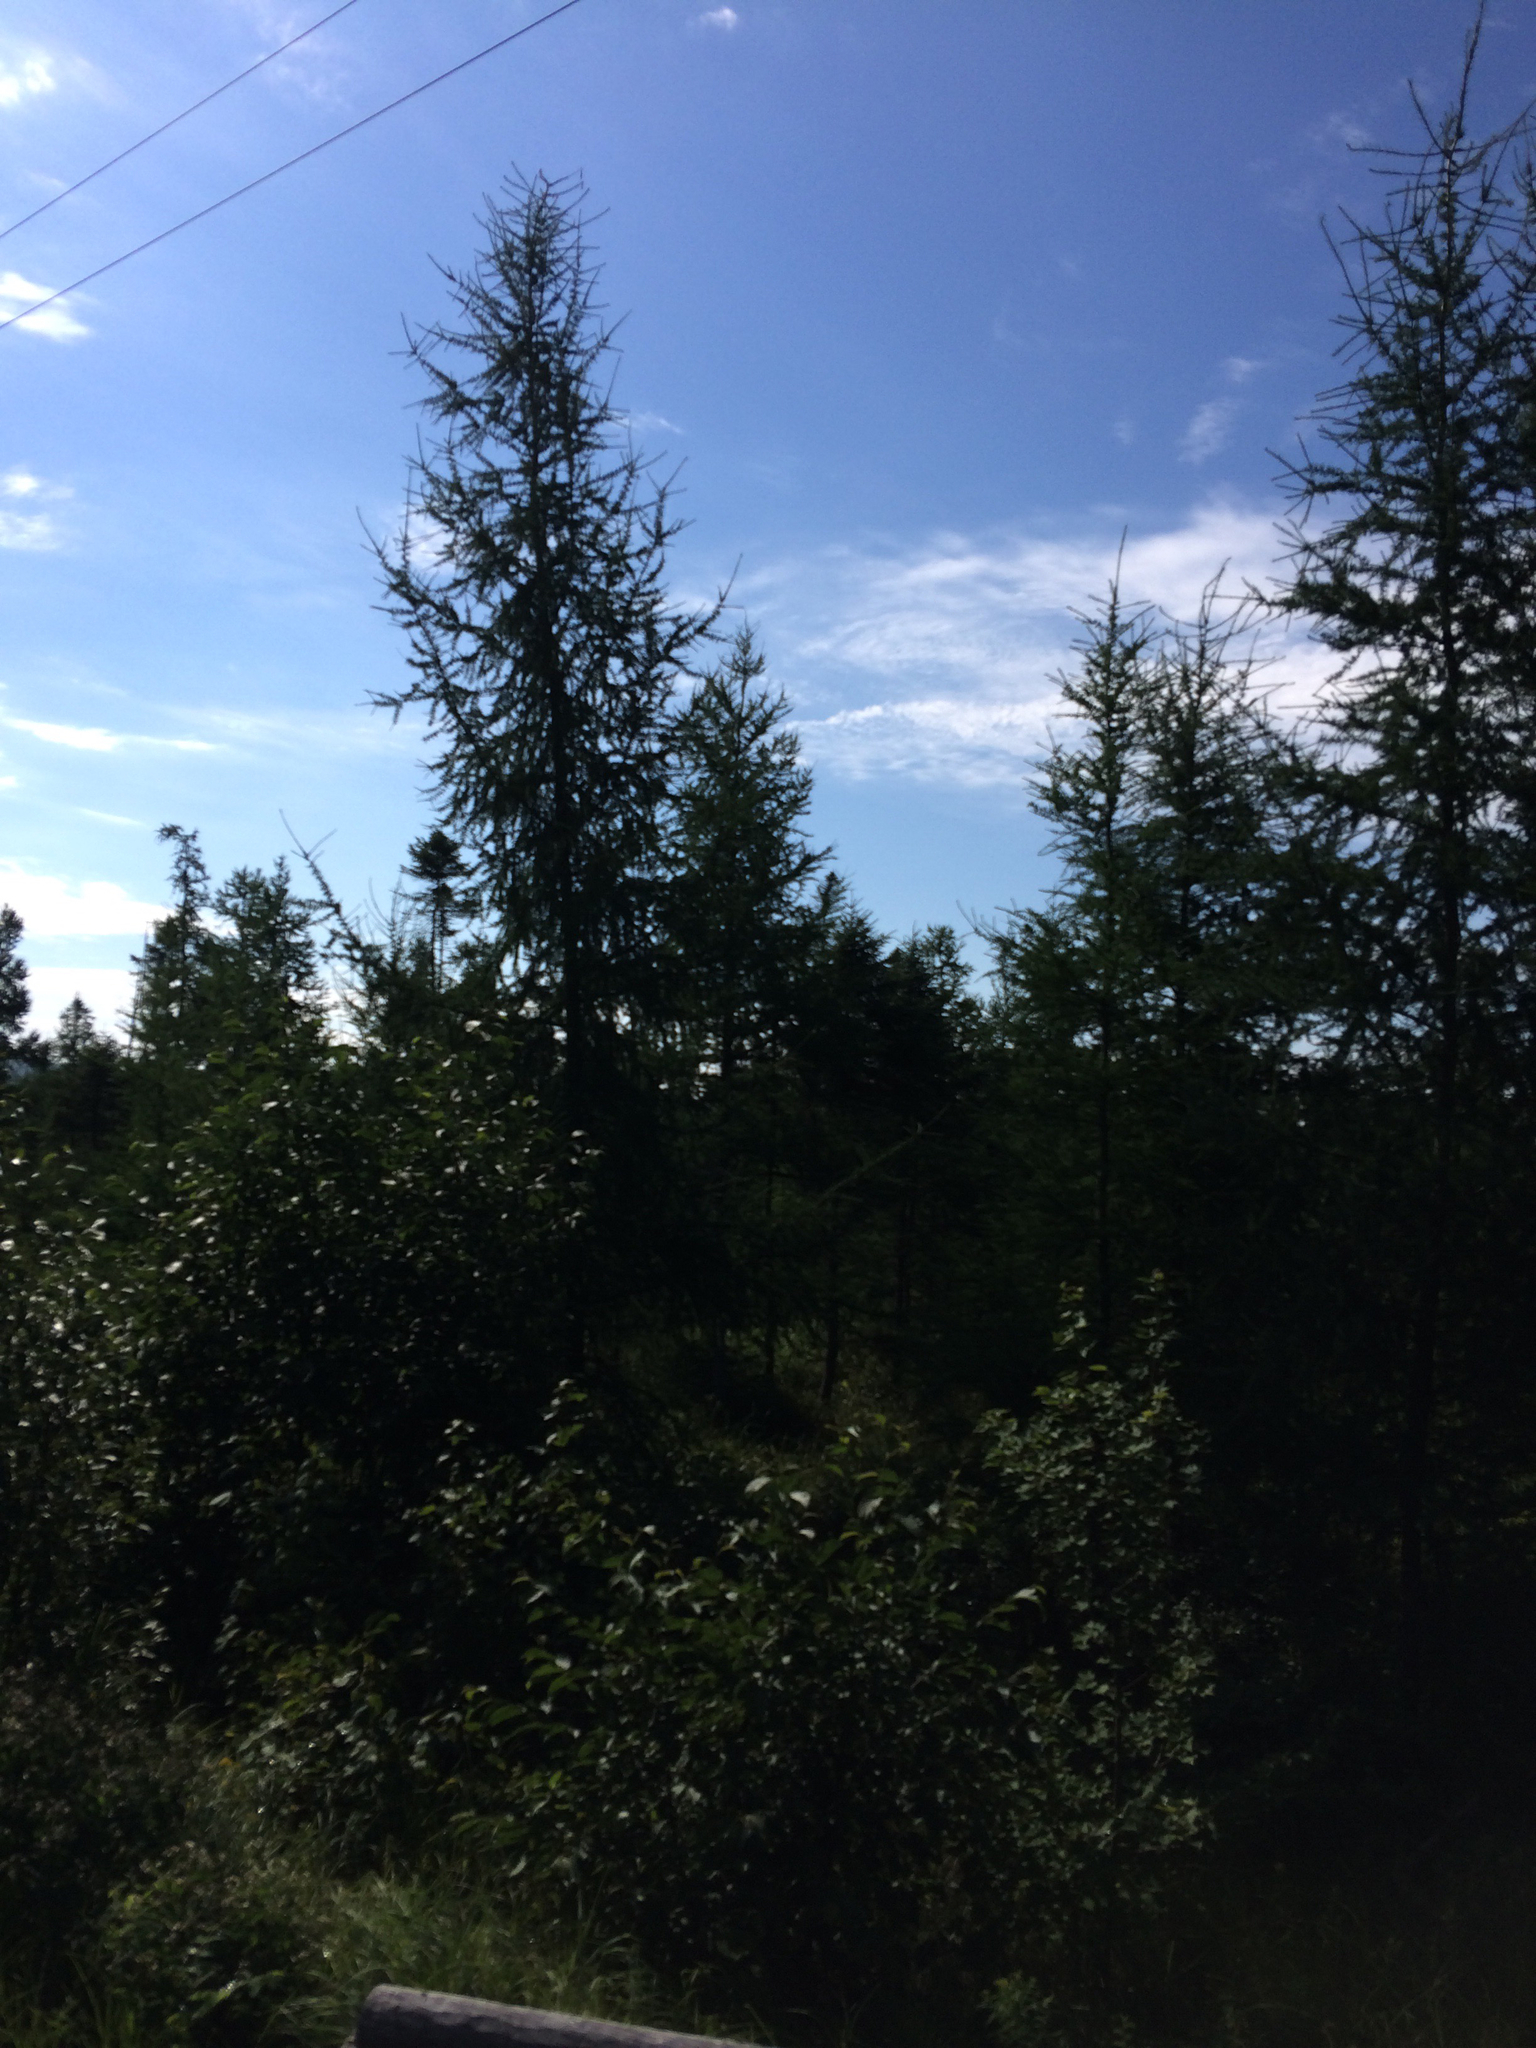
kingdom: Plantae
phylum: Tracheophyta
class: Pinopsida
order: Pinales
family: Pinaceae
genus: Larix
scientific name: Larix laricina
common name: American larch
